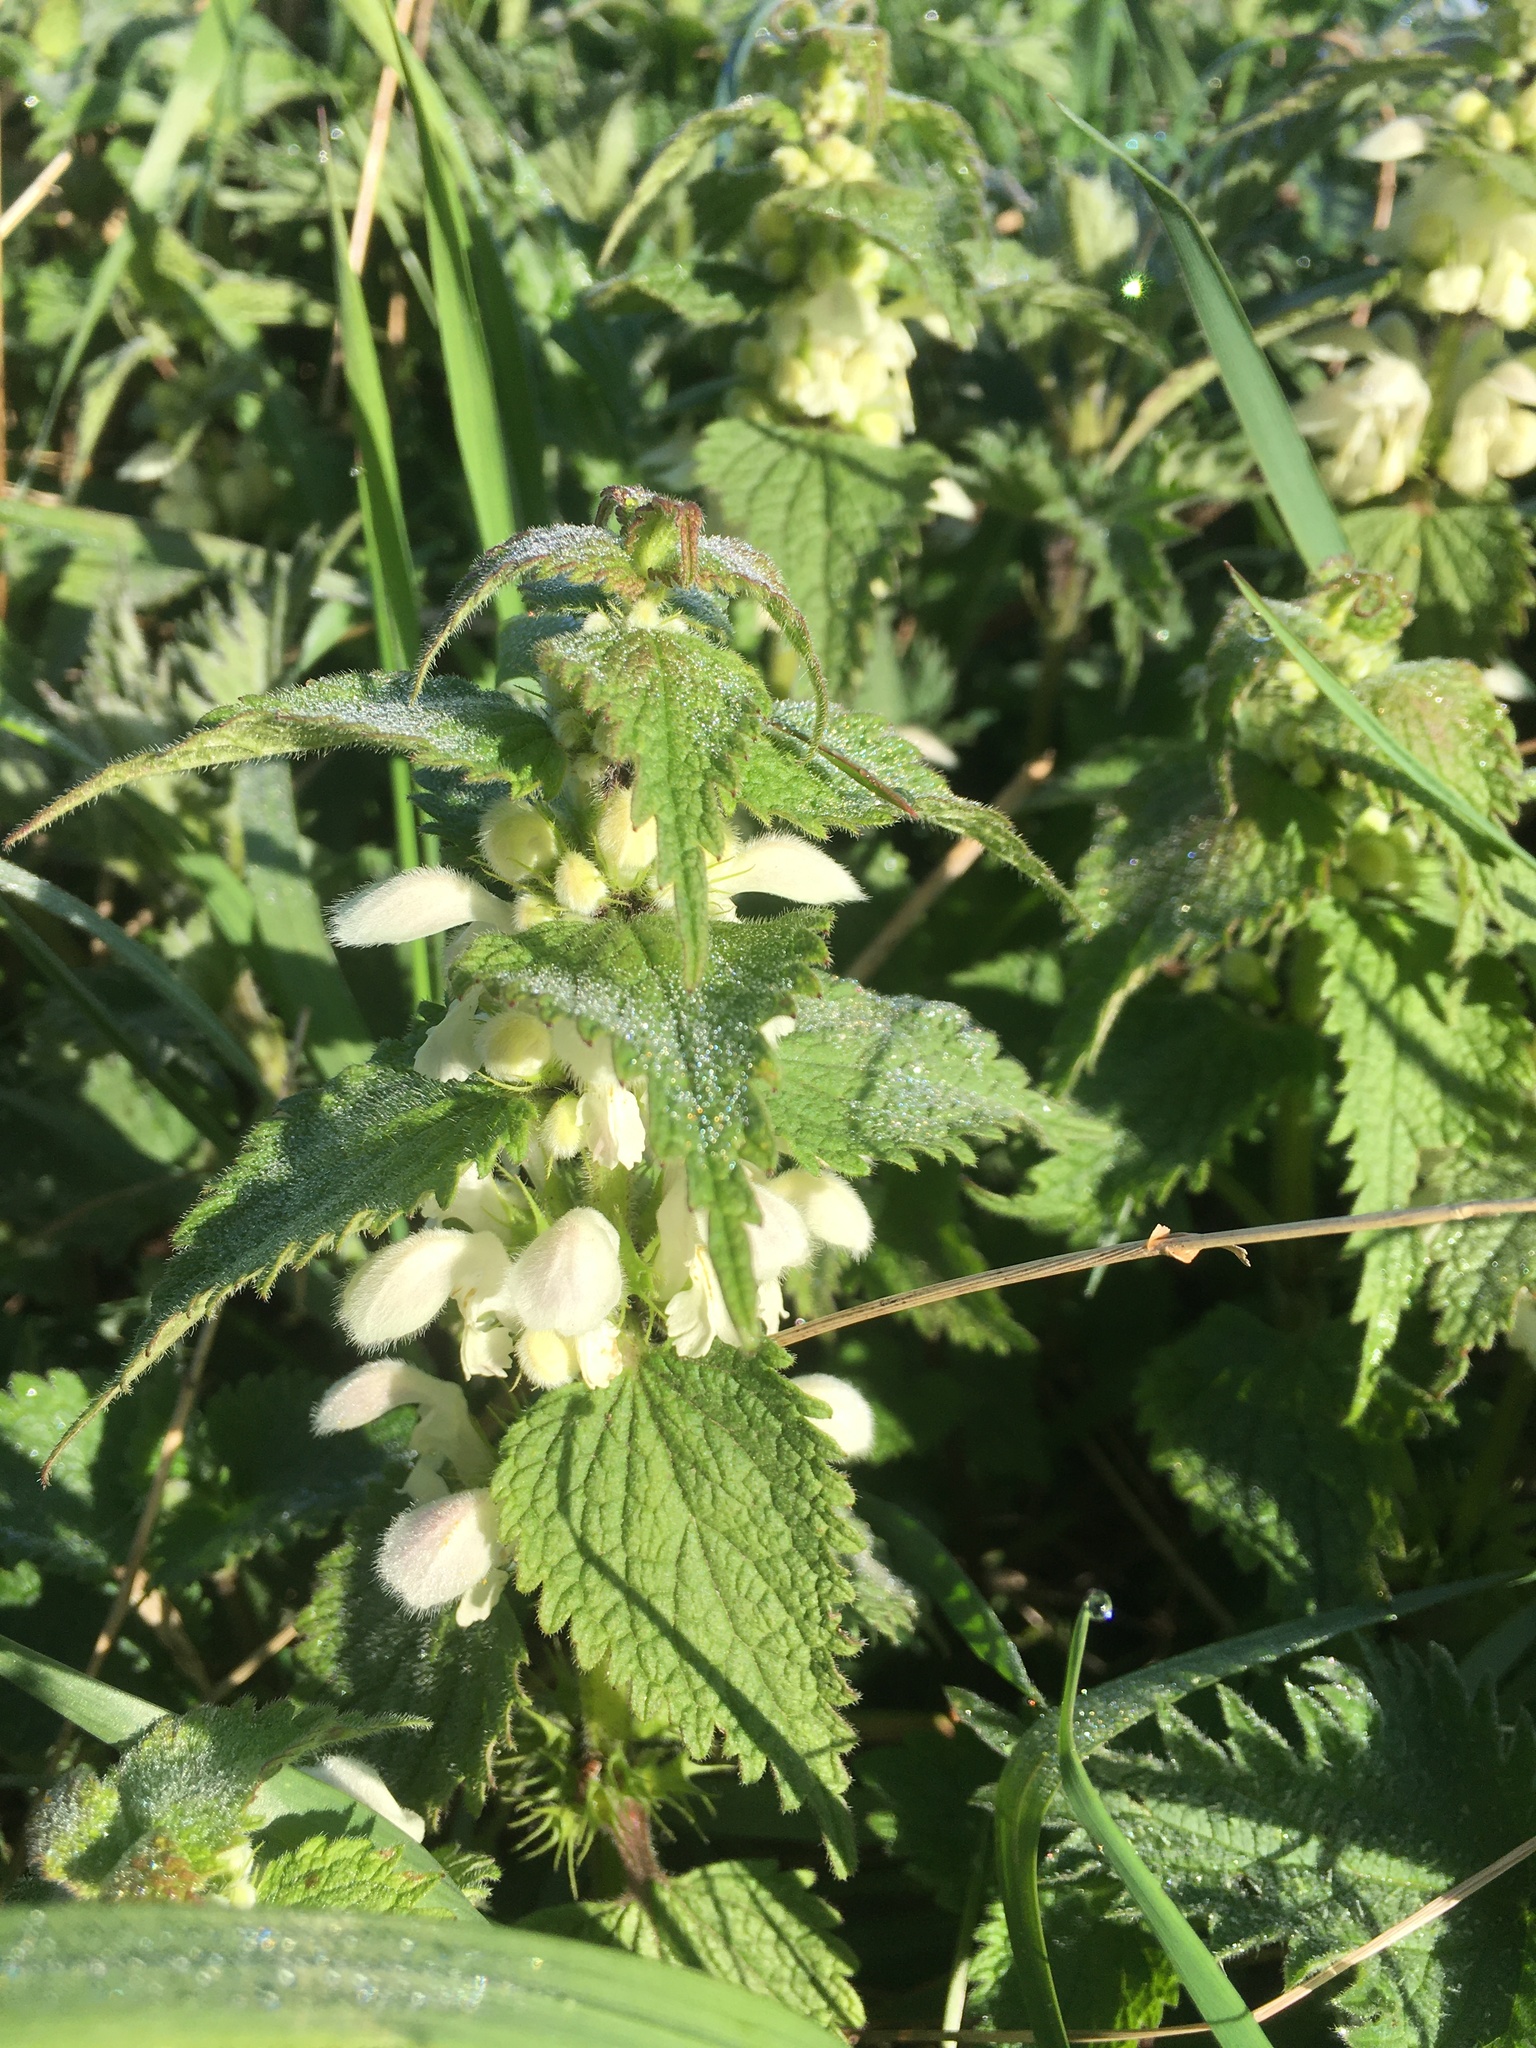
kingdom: Plantae
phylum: Tracheophyta
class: Magnoliopsida
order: Lamiales
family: Lamiaceae
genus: Lamium
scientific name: Lamium album
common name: White dead-nettle
